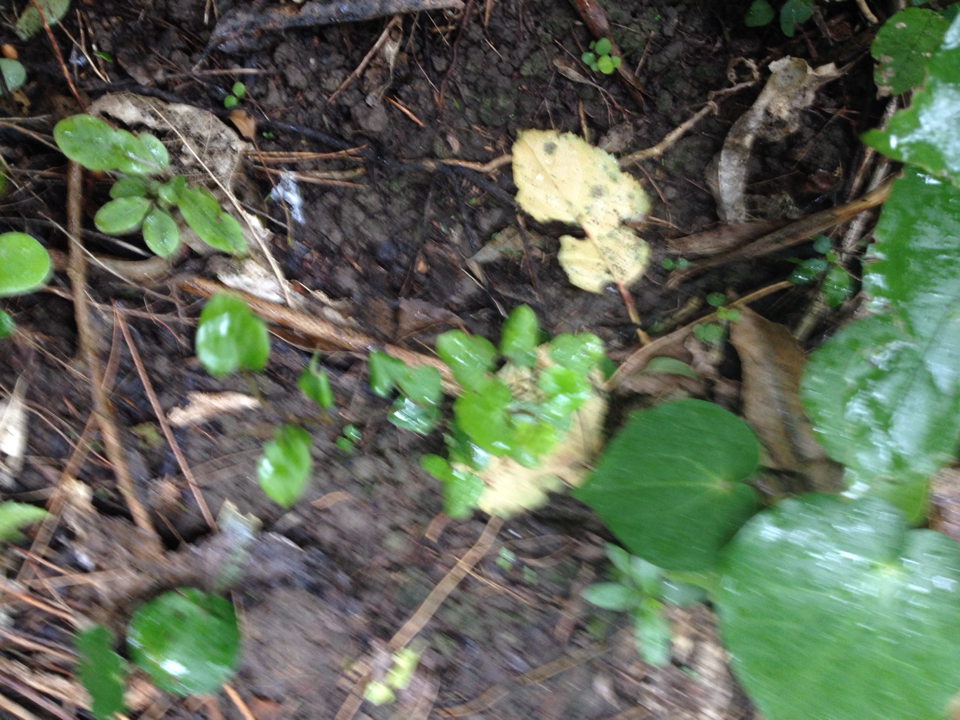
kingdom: Plantae
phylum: Tracheophyta
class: Magnoliopsida
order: Caryophyllales
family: Polygonaceae
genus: Muehlenbeckia
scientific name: Muehlenbeckia australis
